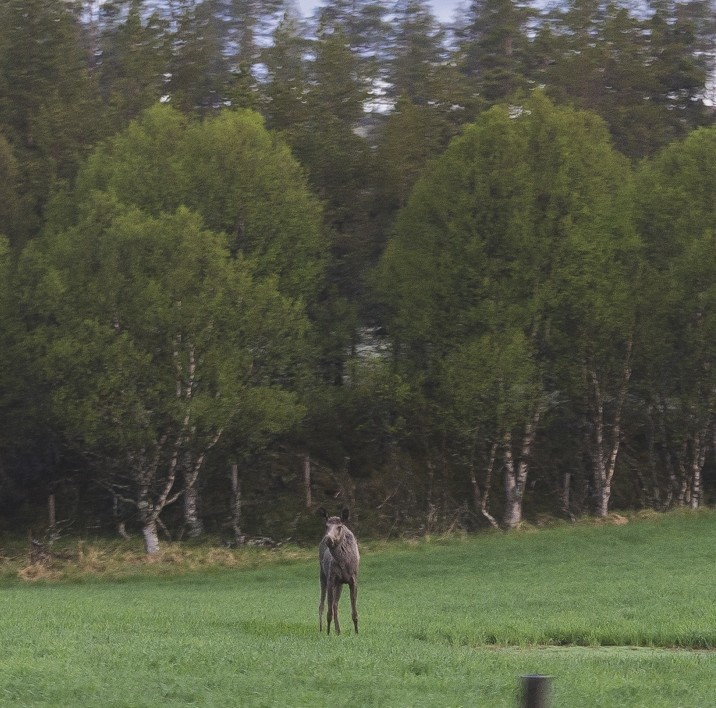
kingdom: Animalia
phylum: Chordata
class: Mammalia
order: Artiodactyla
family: Cervidae
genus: Alces
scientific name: Alces alces
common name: Moose
